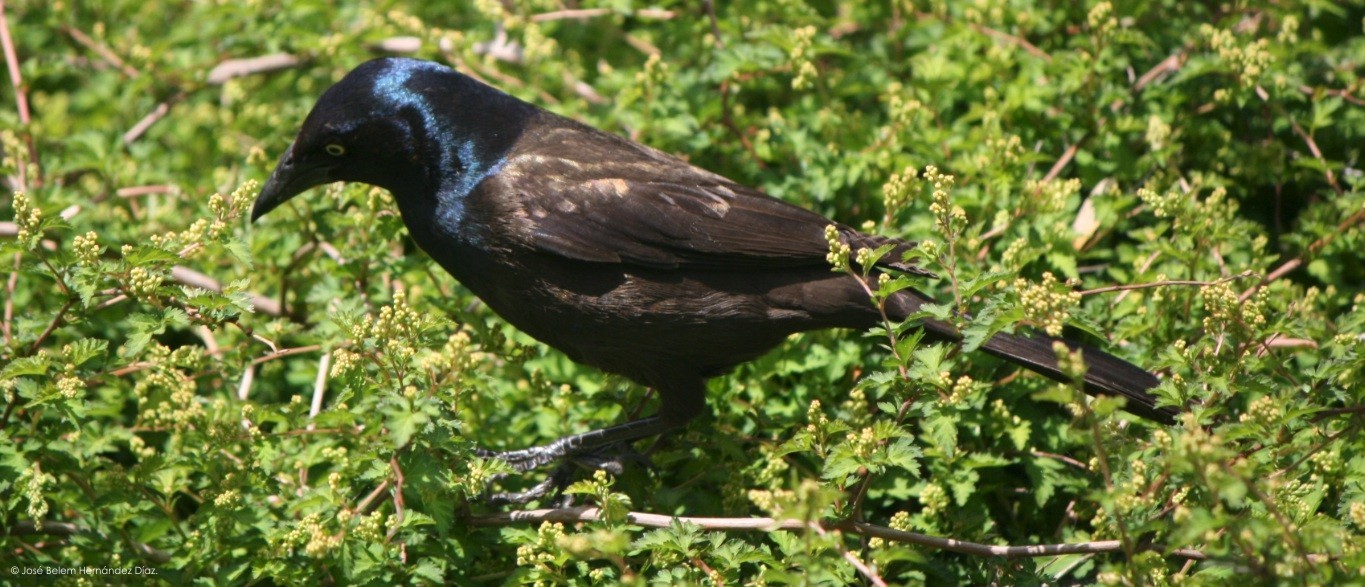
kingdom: Animalia
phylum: Chordata
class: Aves
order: Passeriformes
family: Icteridae
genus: Quiscalus
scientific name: Quiscalus quiscula
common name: Common grackle
